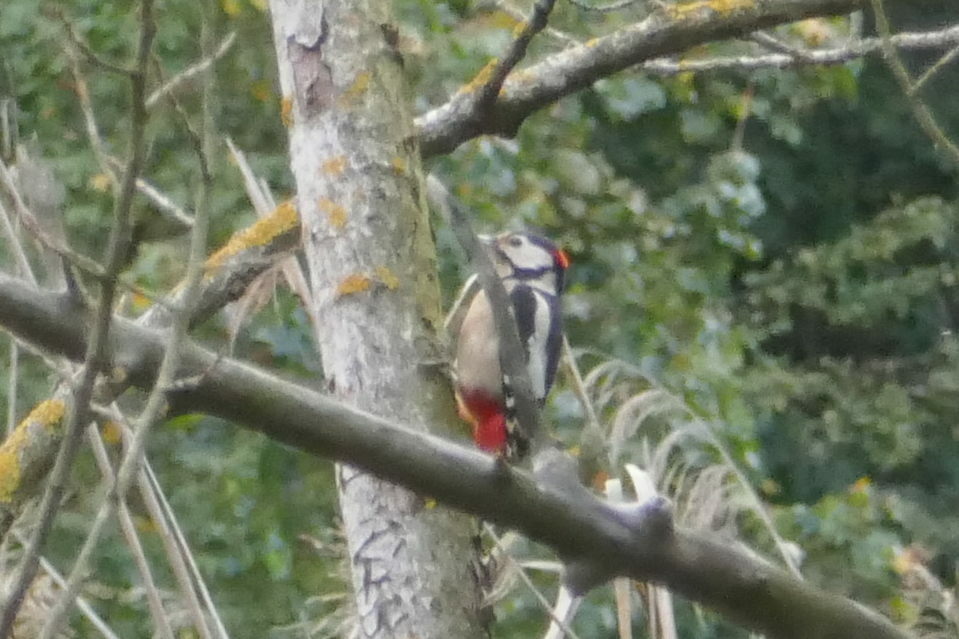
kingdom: Animalia
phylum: Chordata
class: Aves
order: Piciformes
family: Picidae
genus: Dendrocopos
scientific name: Dendrocopos major
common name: Great spotted woodpecker
